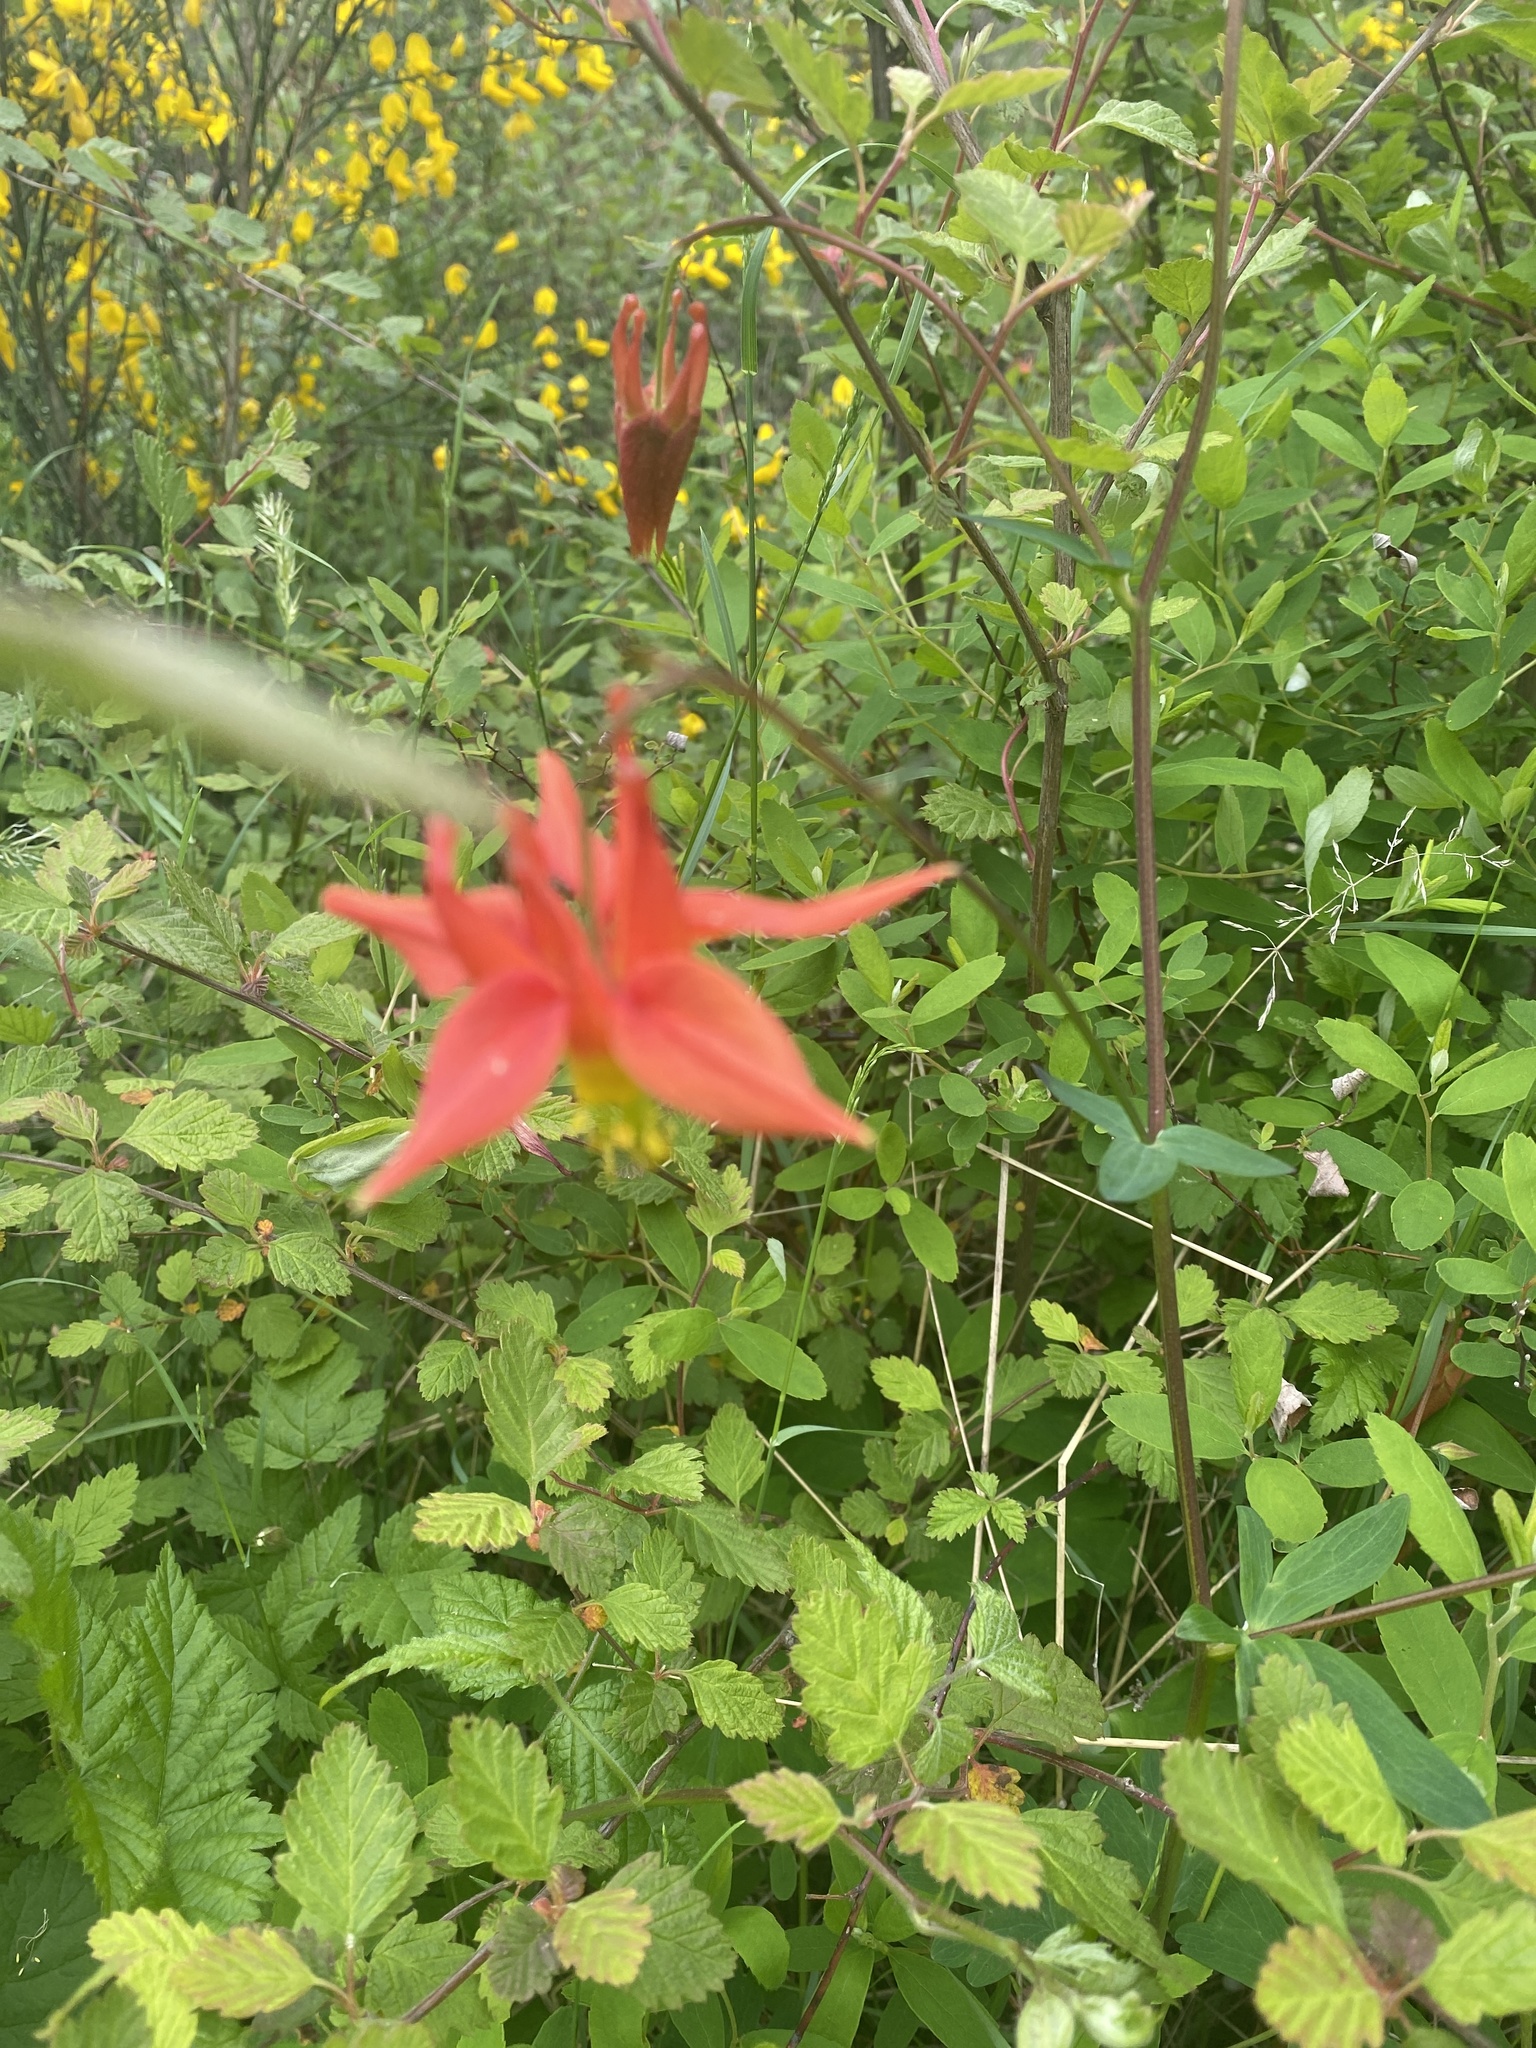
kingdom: Plantae
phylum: Tracheophyta
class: Magnoliopsida
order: Ranunculales
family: Ranunculaceae
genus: Aquilegia
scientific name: Aquilegia formosa
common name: Sitka columbine
